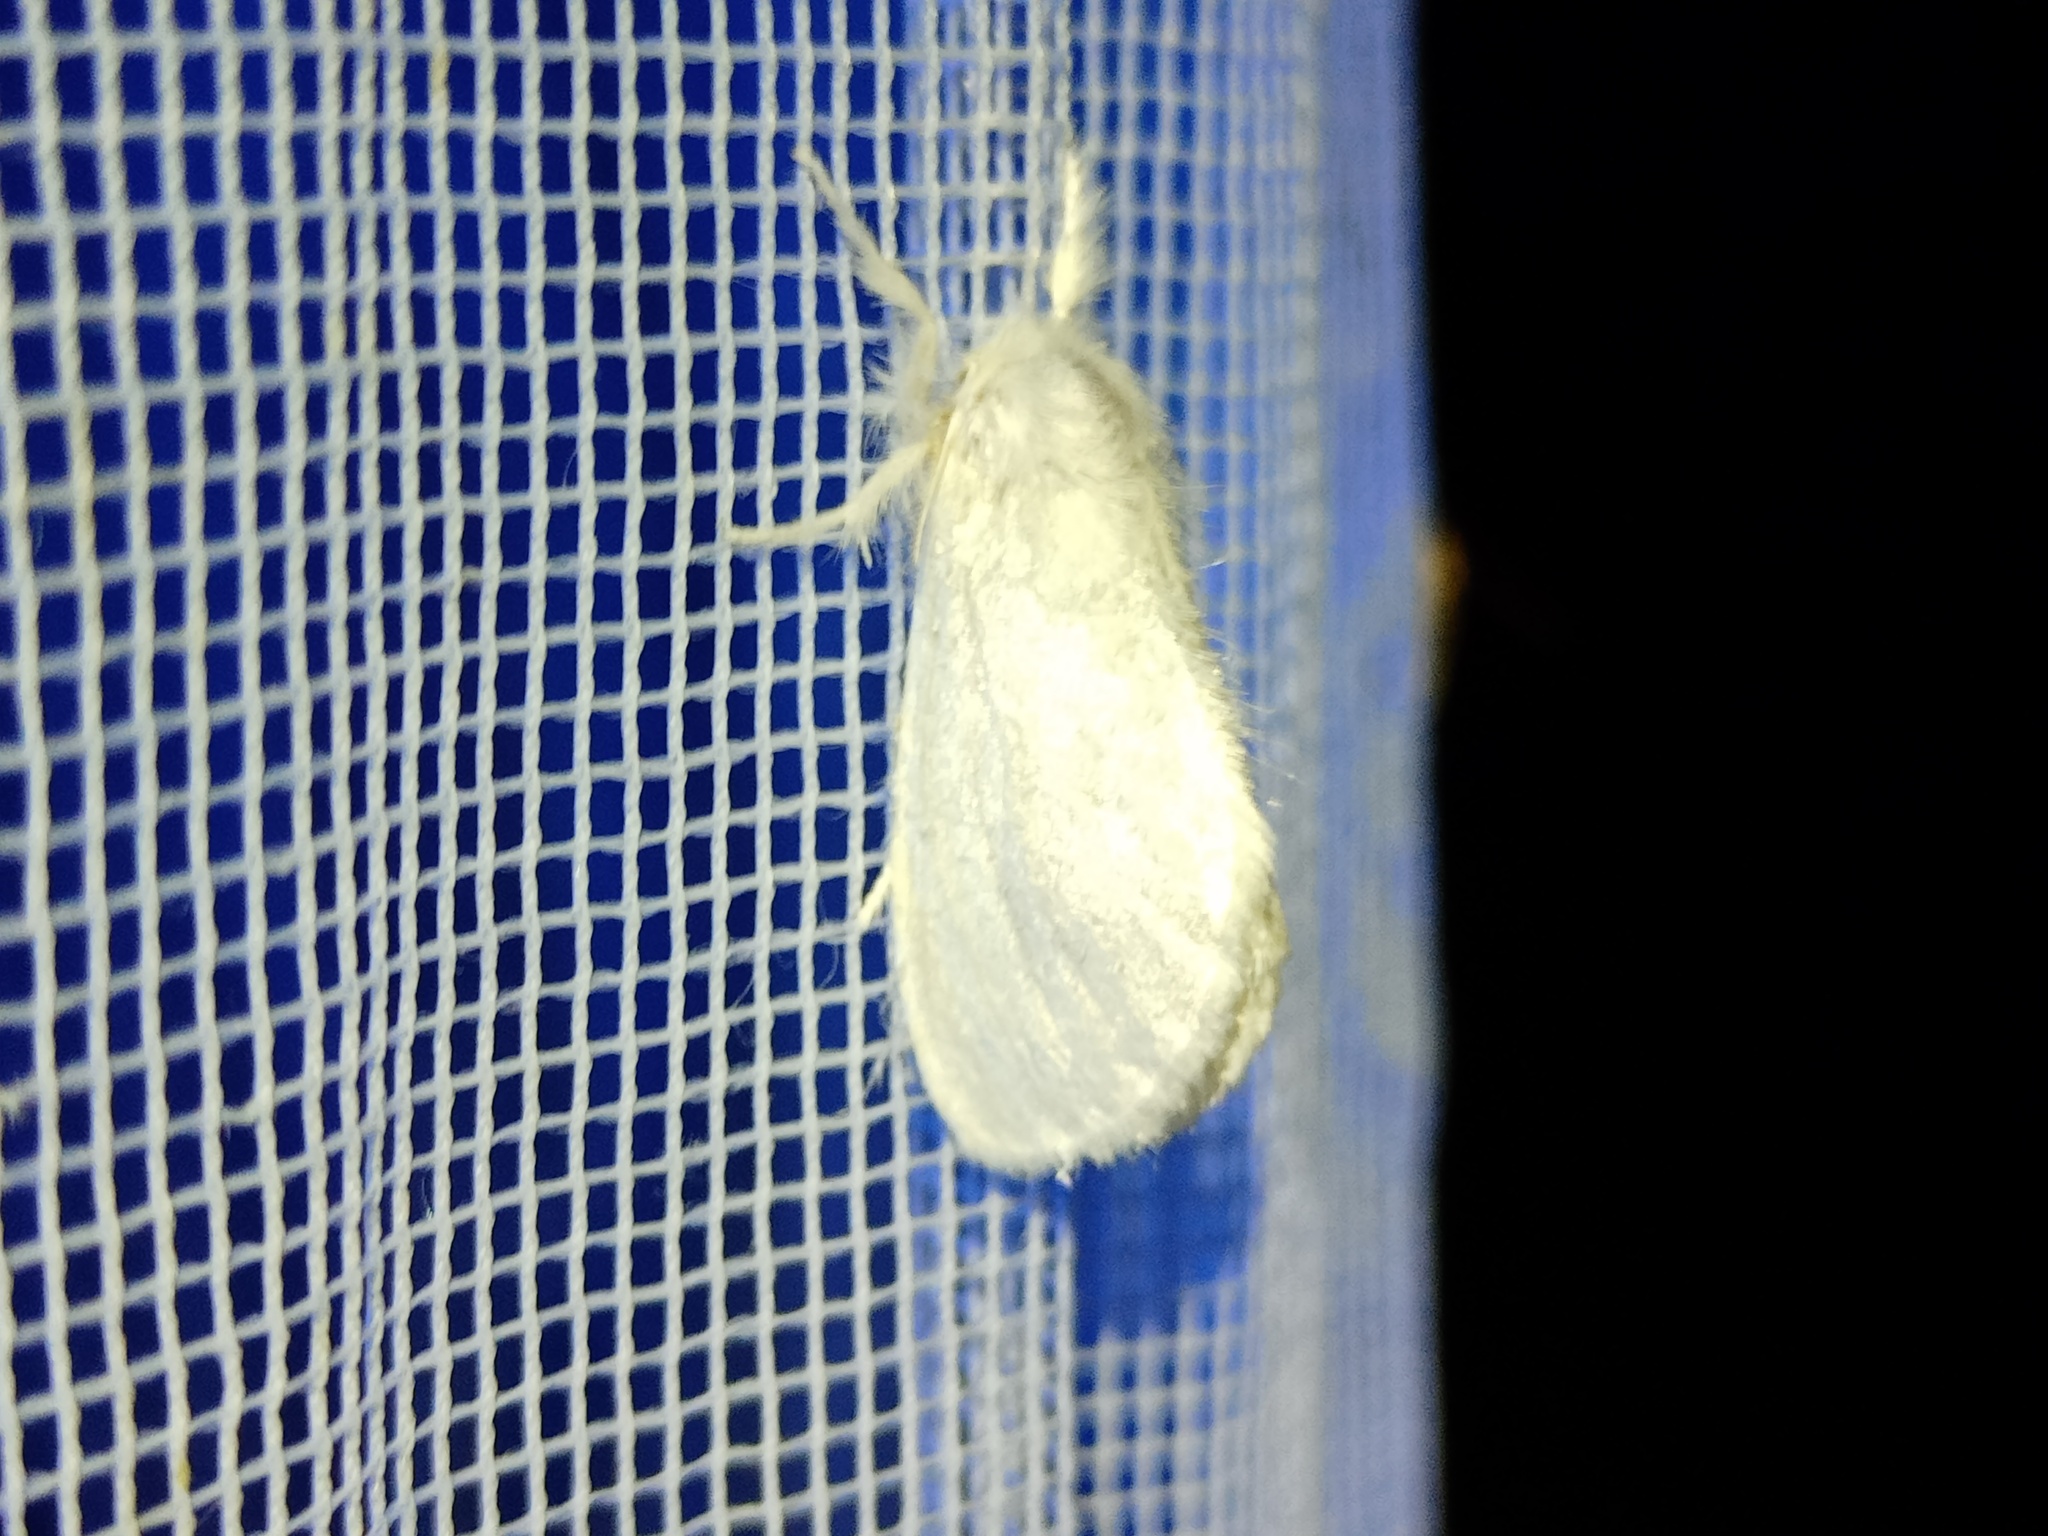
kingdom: Animalia
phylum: Arthropoda
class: Insecta
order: Lepidoptera
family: Erebidae
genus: Sphrageidus
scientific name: Sphrageidus similis
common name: Yellow-tail
